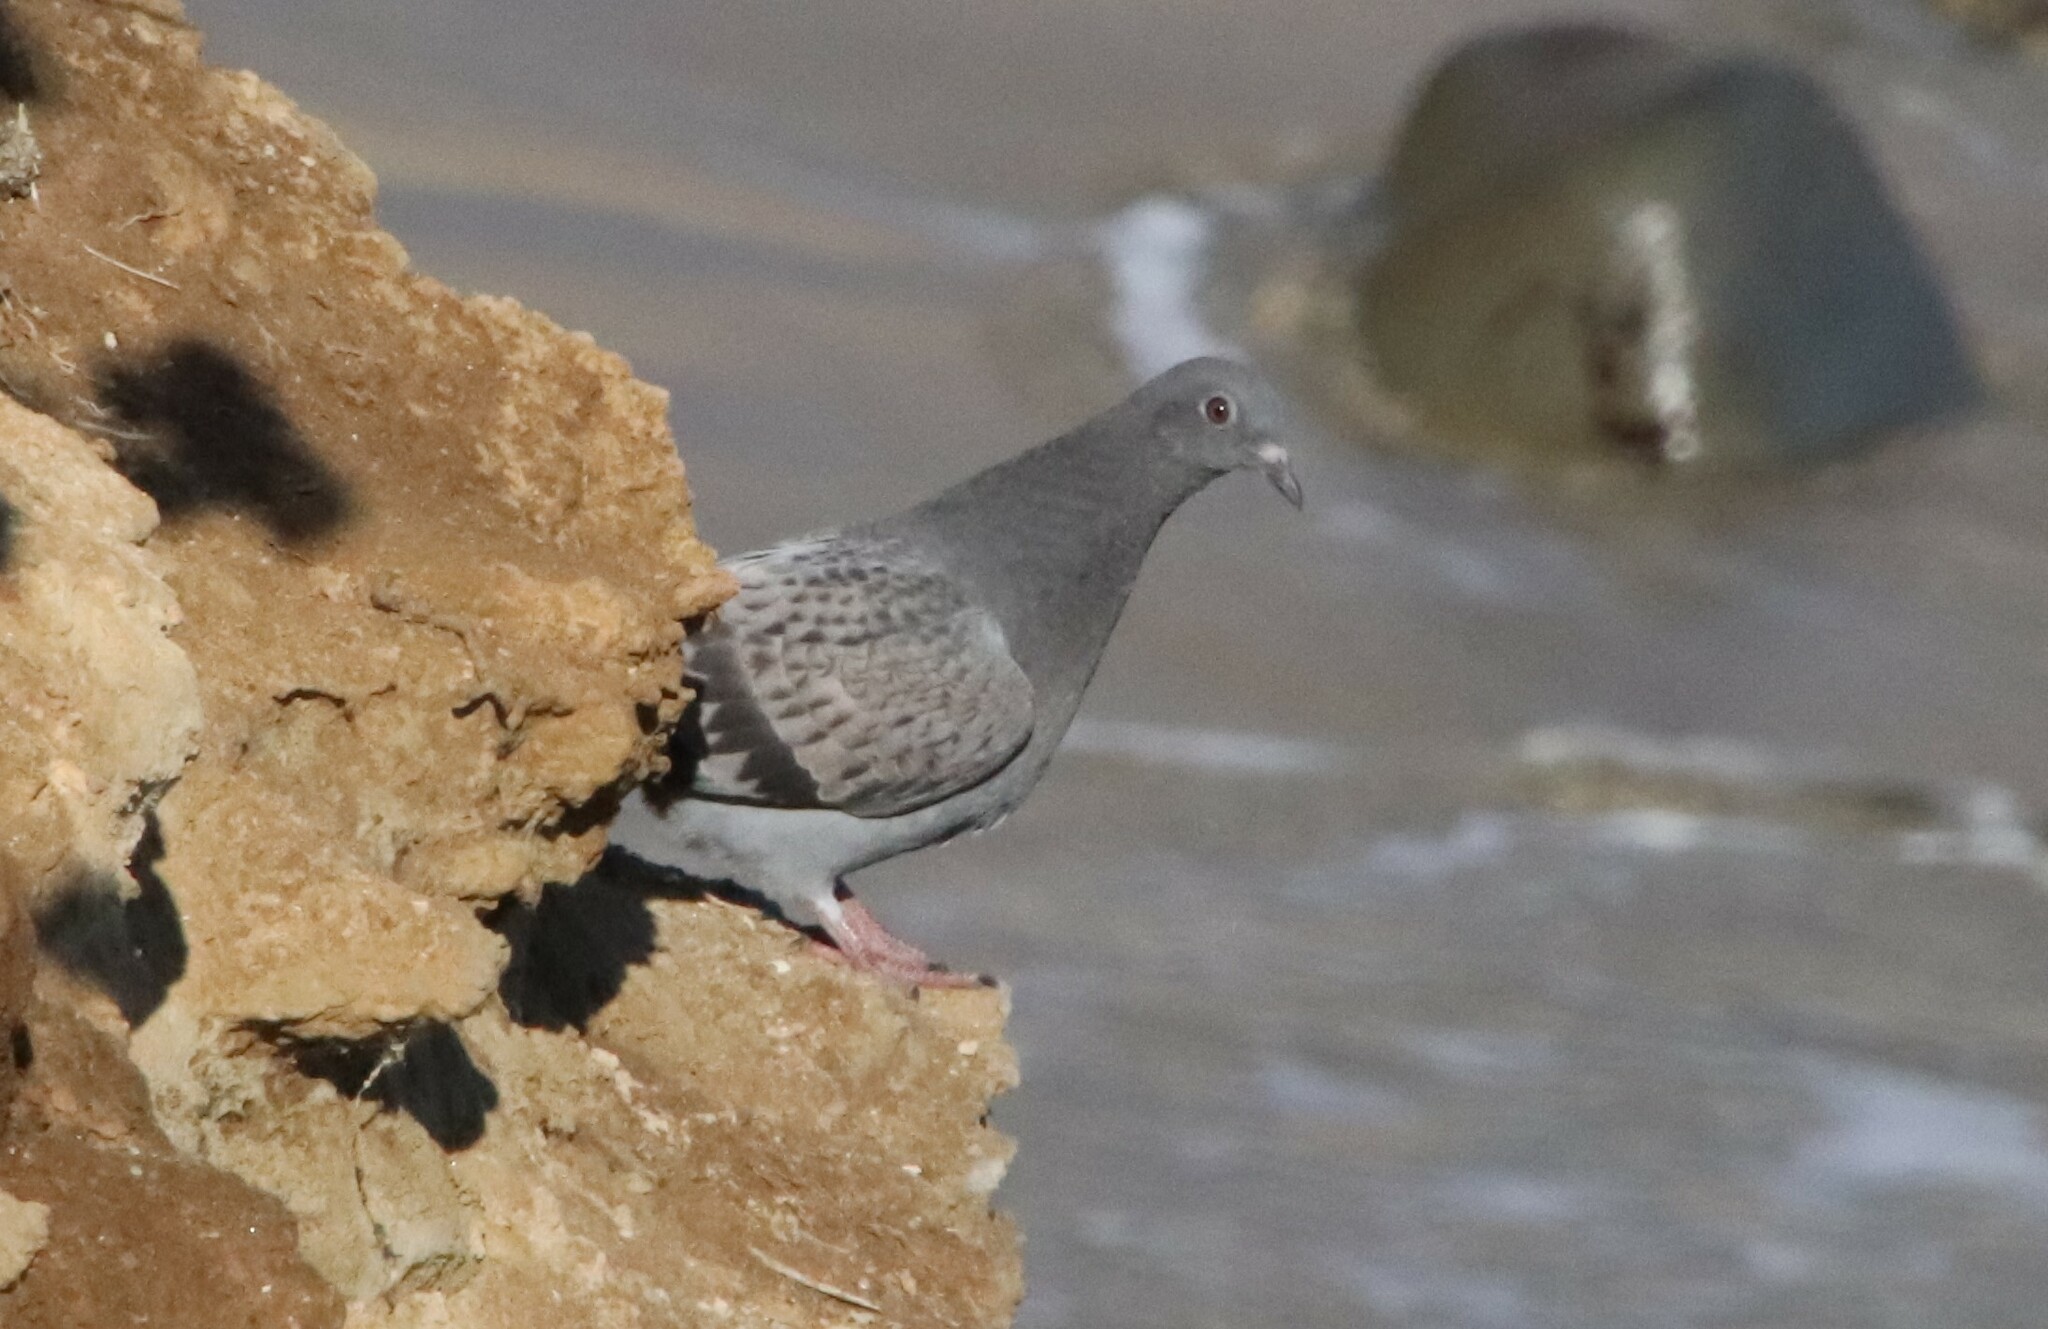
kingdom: Animalia
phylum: Chordata
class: Aves
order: Columbiformes
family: Columbidae
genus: Columba
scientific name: Columba livia
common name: Rock pigeon
